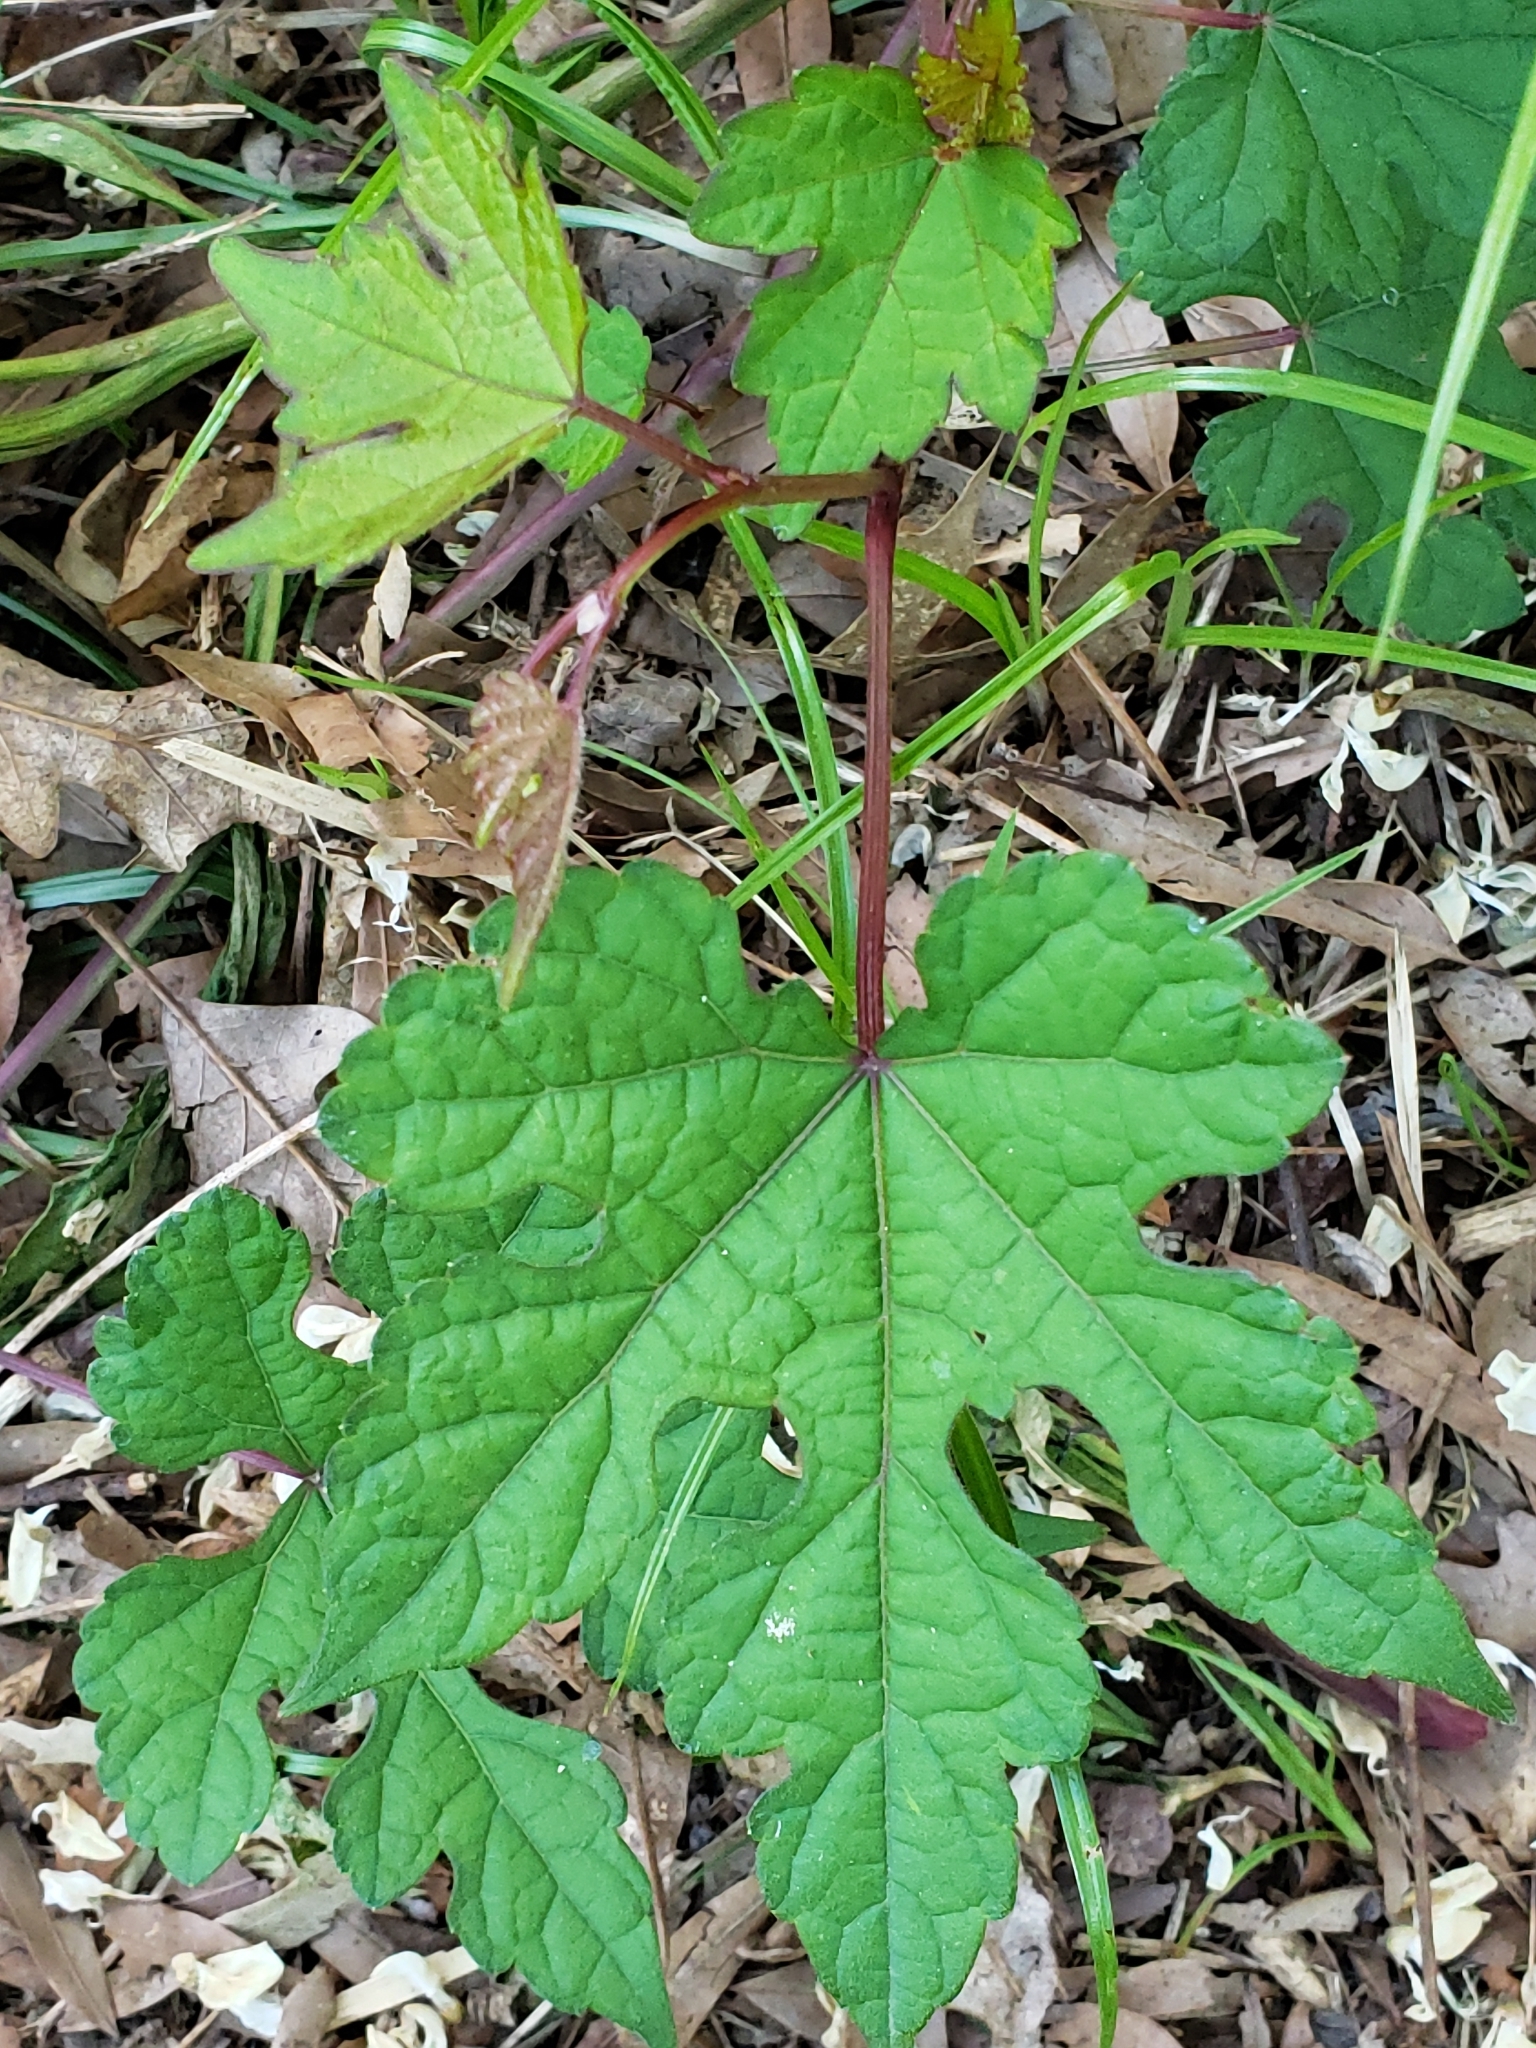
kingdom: Plantae
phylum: Tracheophyta
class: Magnoliopsida
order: Vitales
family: Vitaceae
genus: Ampelopsis
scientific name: Ampelopsis glandulosa
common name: Amur peppervine
